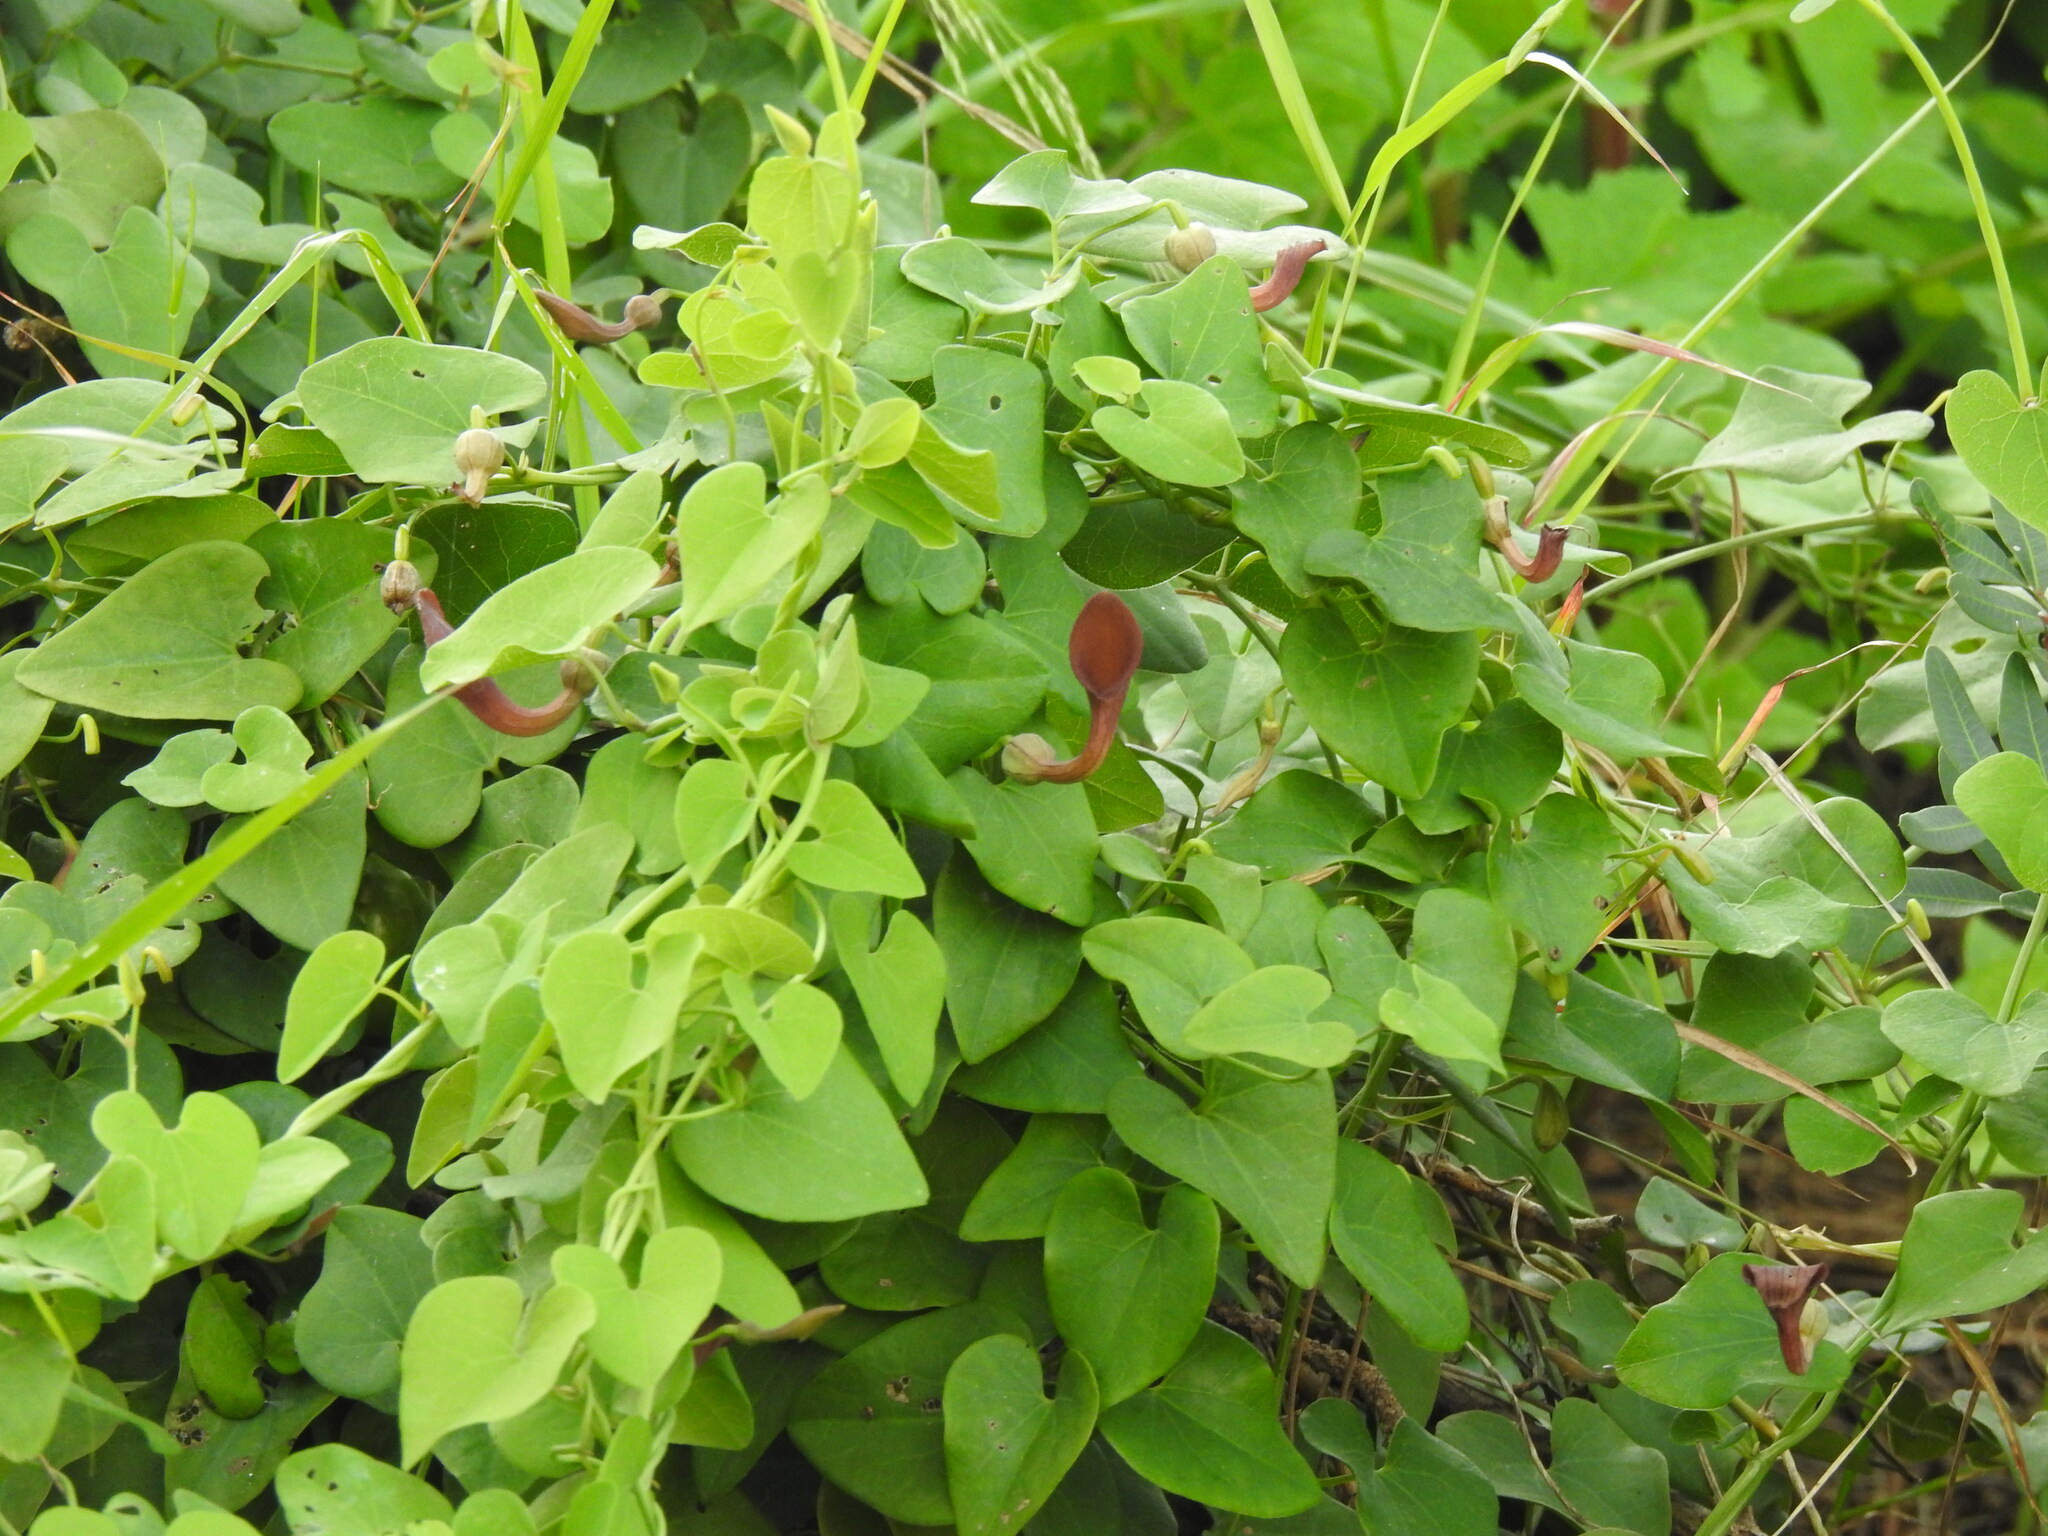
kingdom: Plantae
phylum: Tracheophyta
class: Magnoliopsida
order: Piperales
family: Aristolochiaceae
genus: Aristolochia
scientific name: Aristolochia baetica
